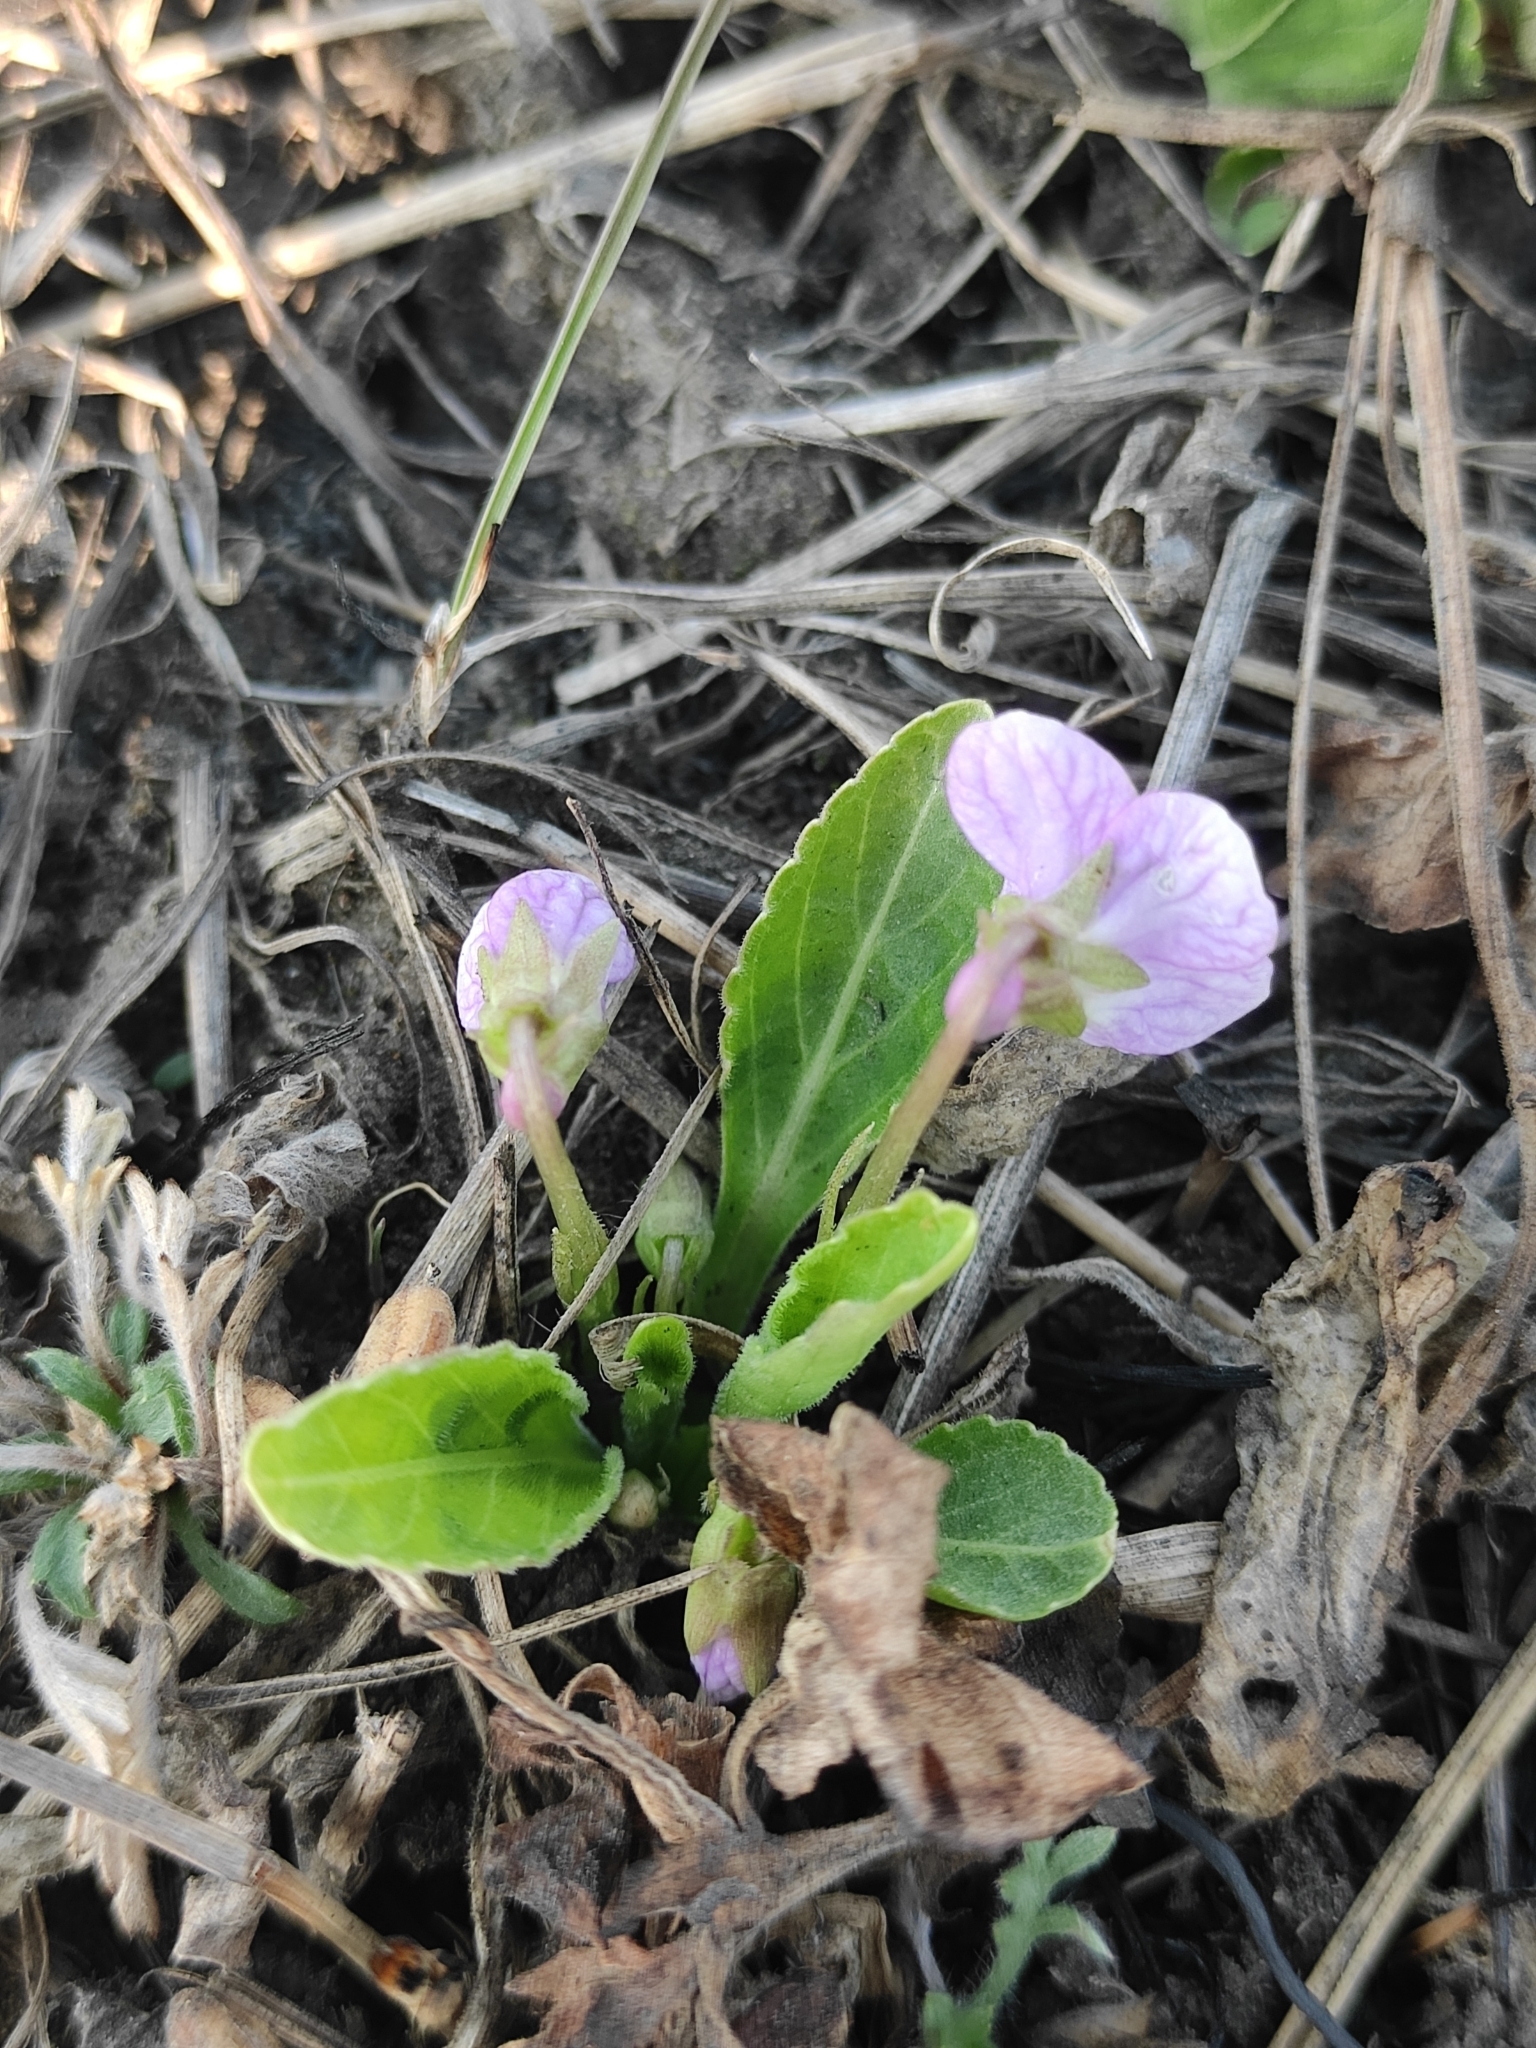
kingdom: Plantae
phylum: Tracheophyta
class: Magnoliopsida
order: Malpighiales
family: Violaceae
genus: Viola
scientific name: Viola gmeliniana
